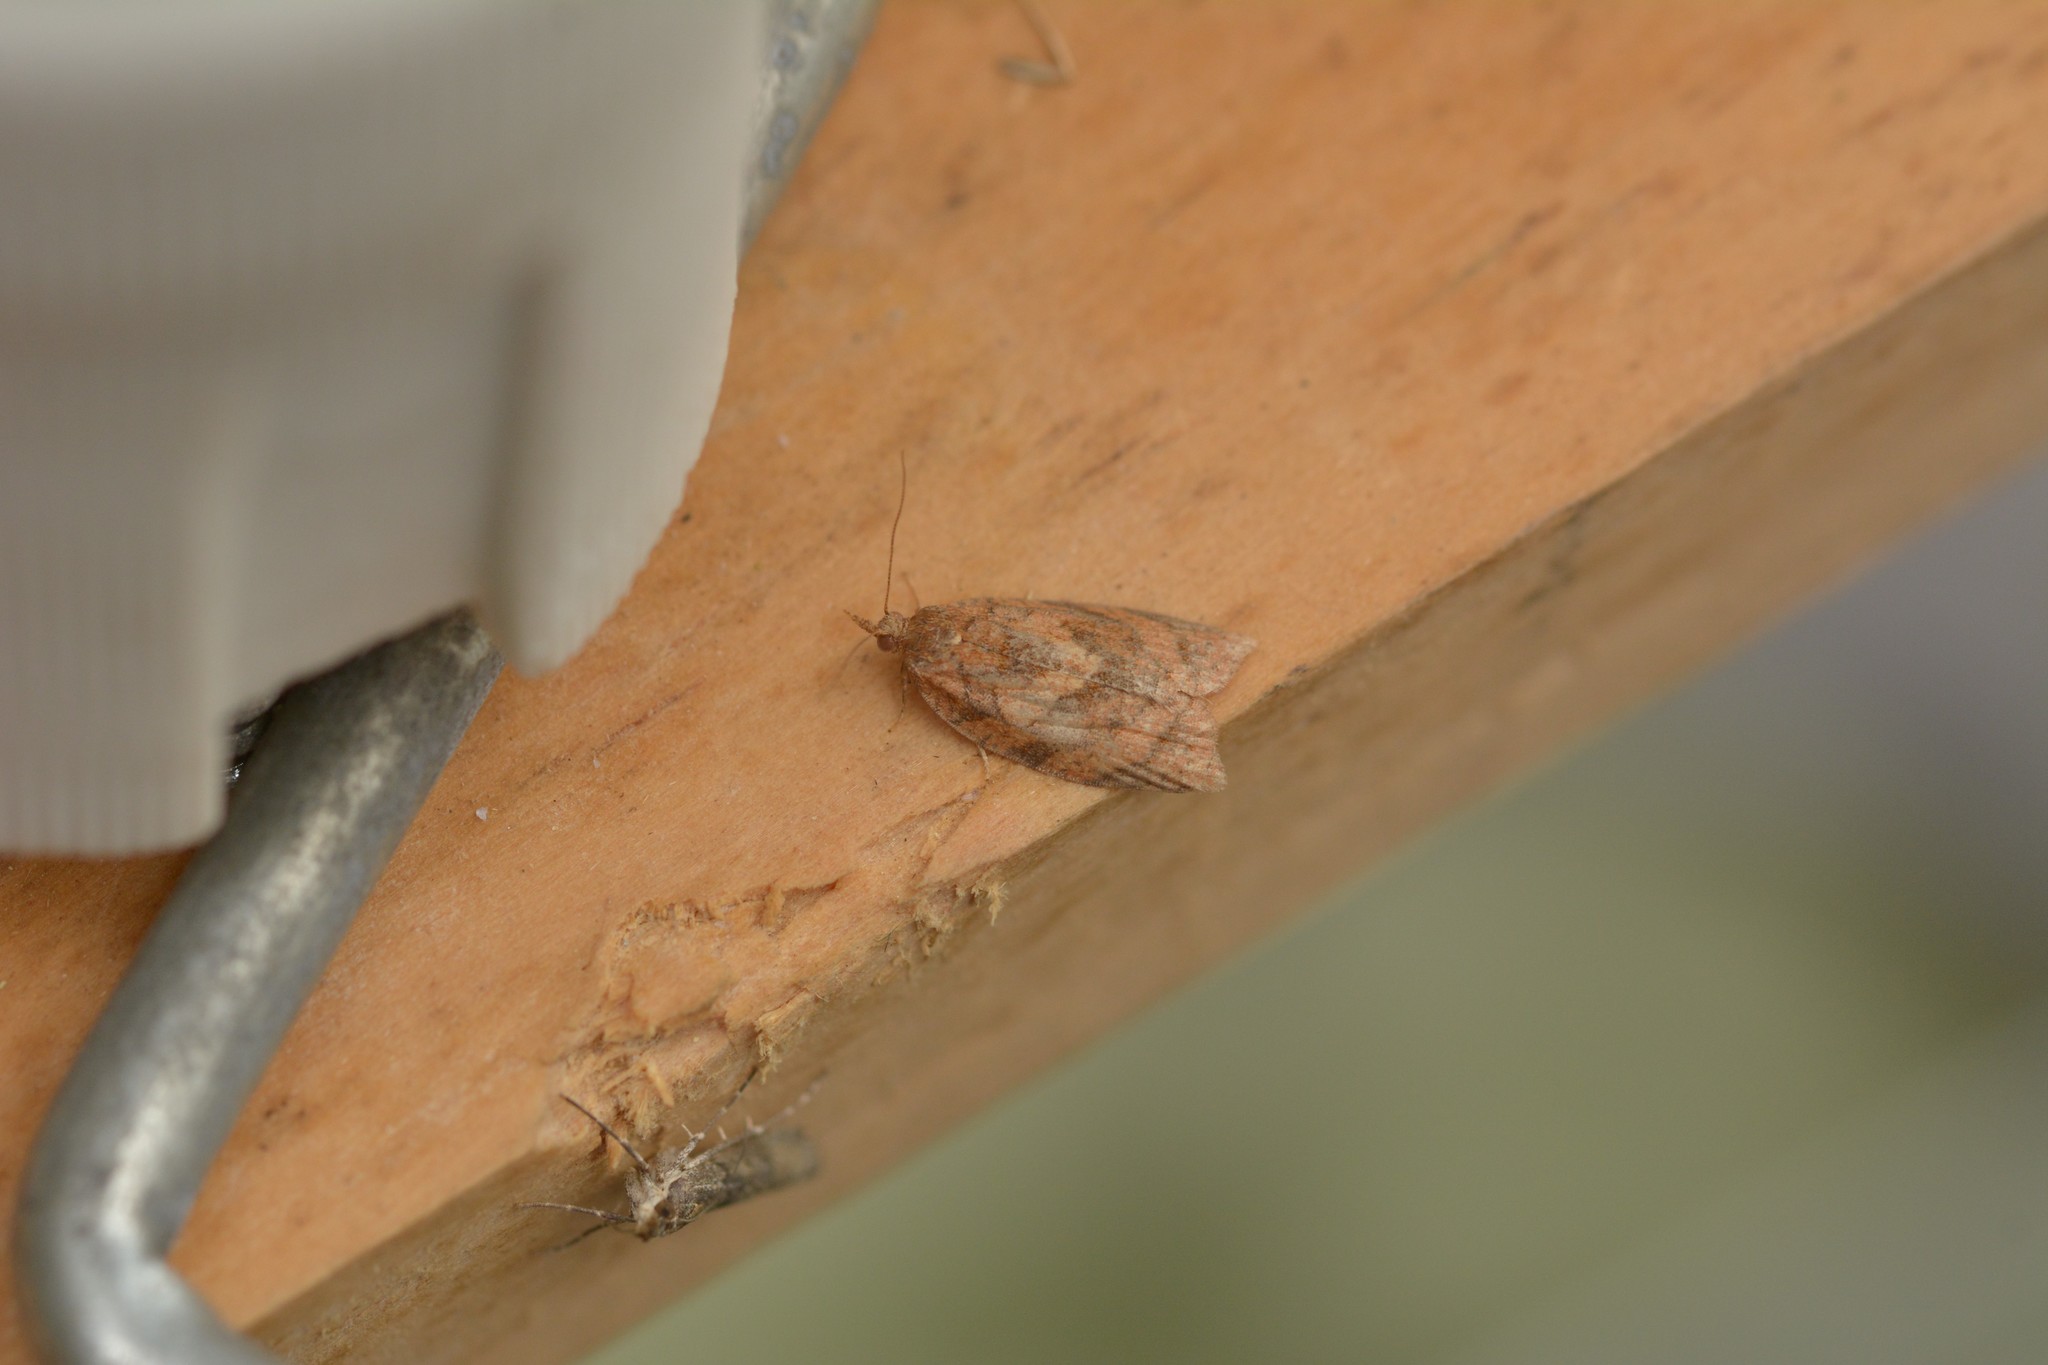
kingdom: Animalia
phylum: Arthropoda
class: Insecta
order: Lepidoptera
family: Tortricidae
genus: Epiphyas
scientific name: Epiphyas postvittana
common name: Light brown apple moth
